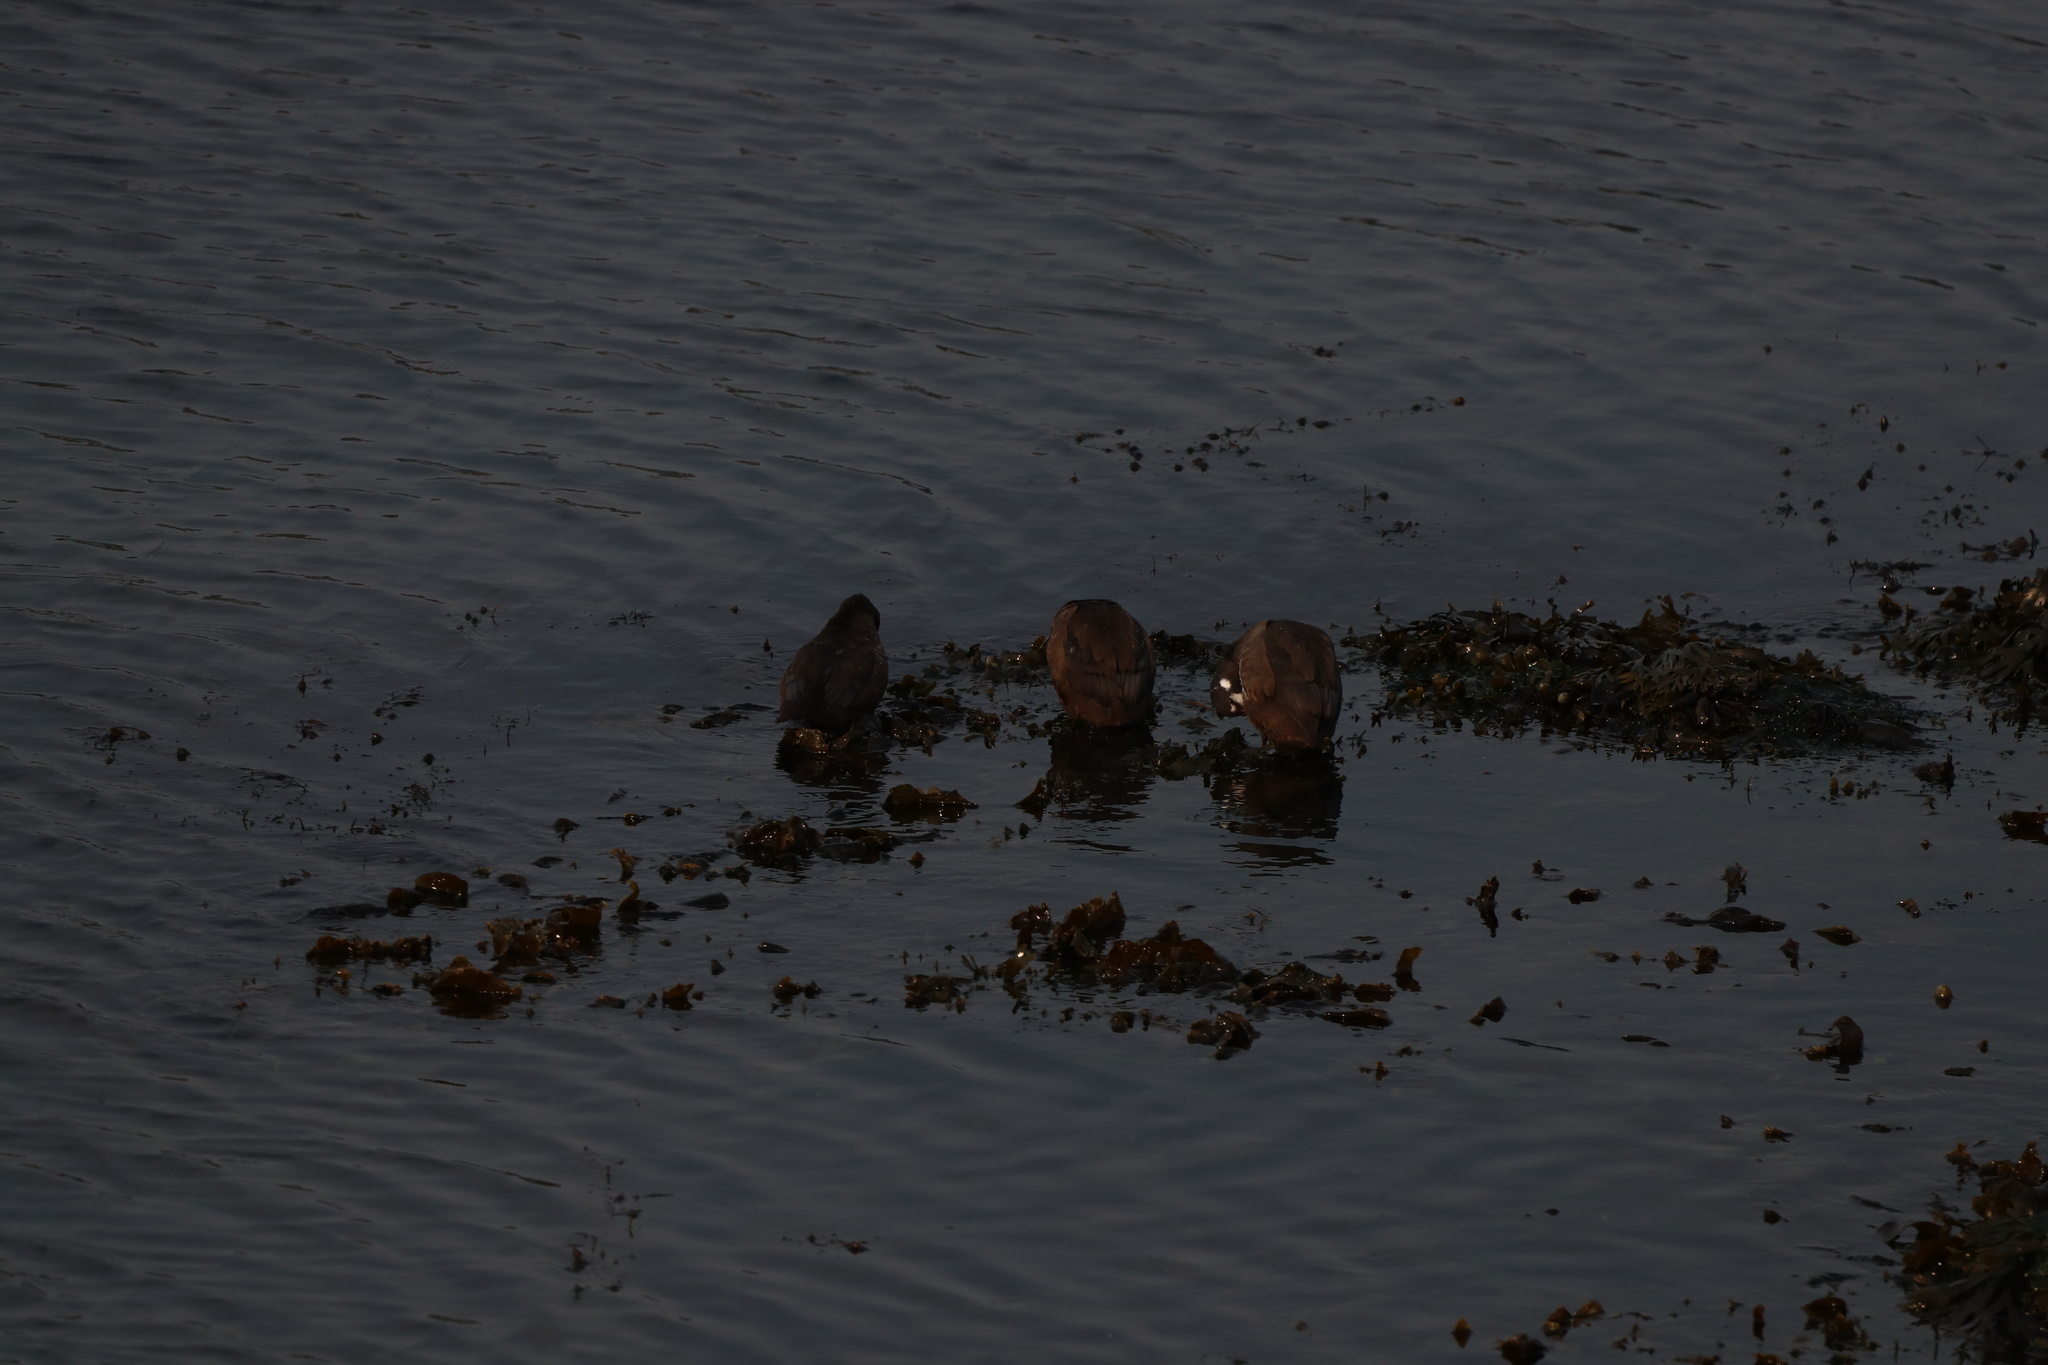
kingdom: Animalia
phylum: Chordata
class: Aves
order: Anseriformes
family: Anatidae
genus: Histrionicus
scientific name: Histrionicus histrionicus
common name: Harlequin duck
